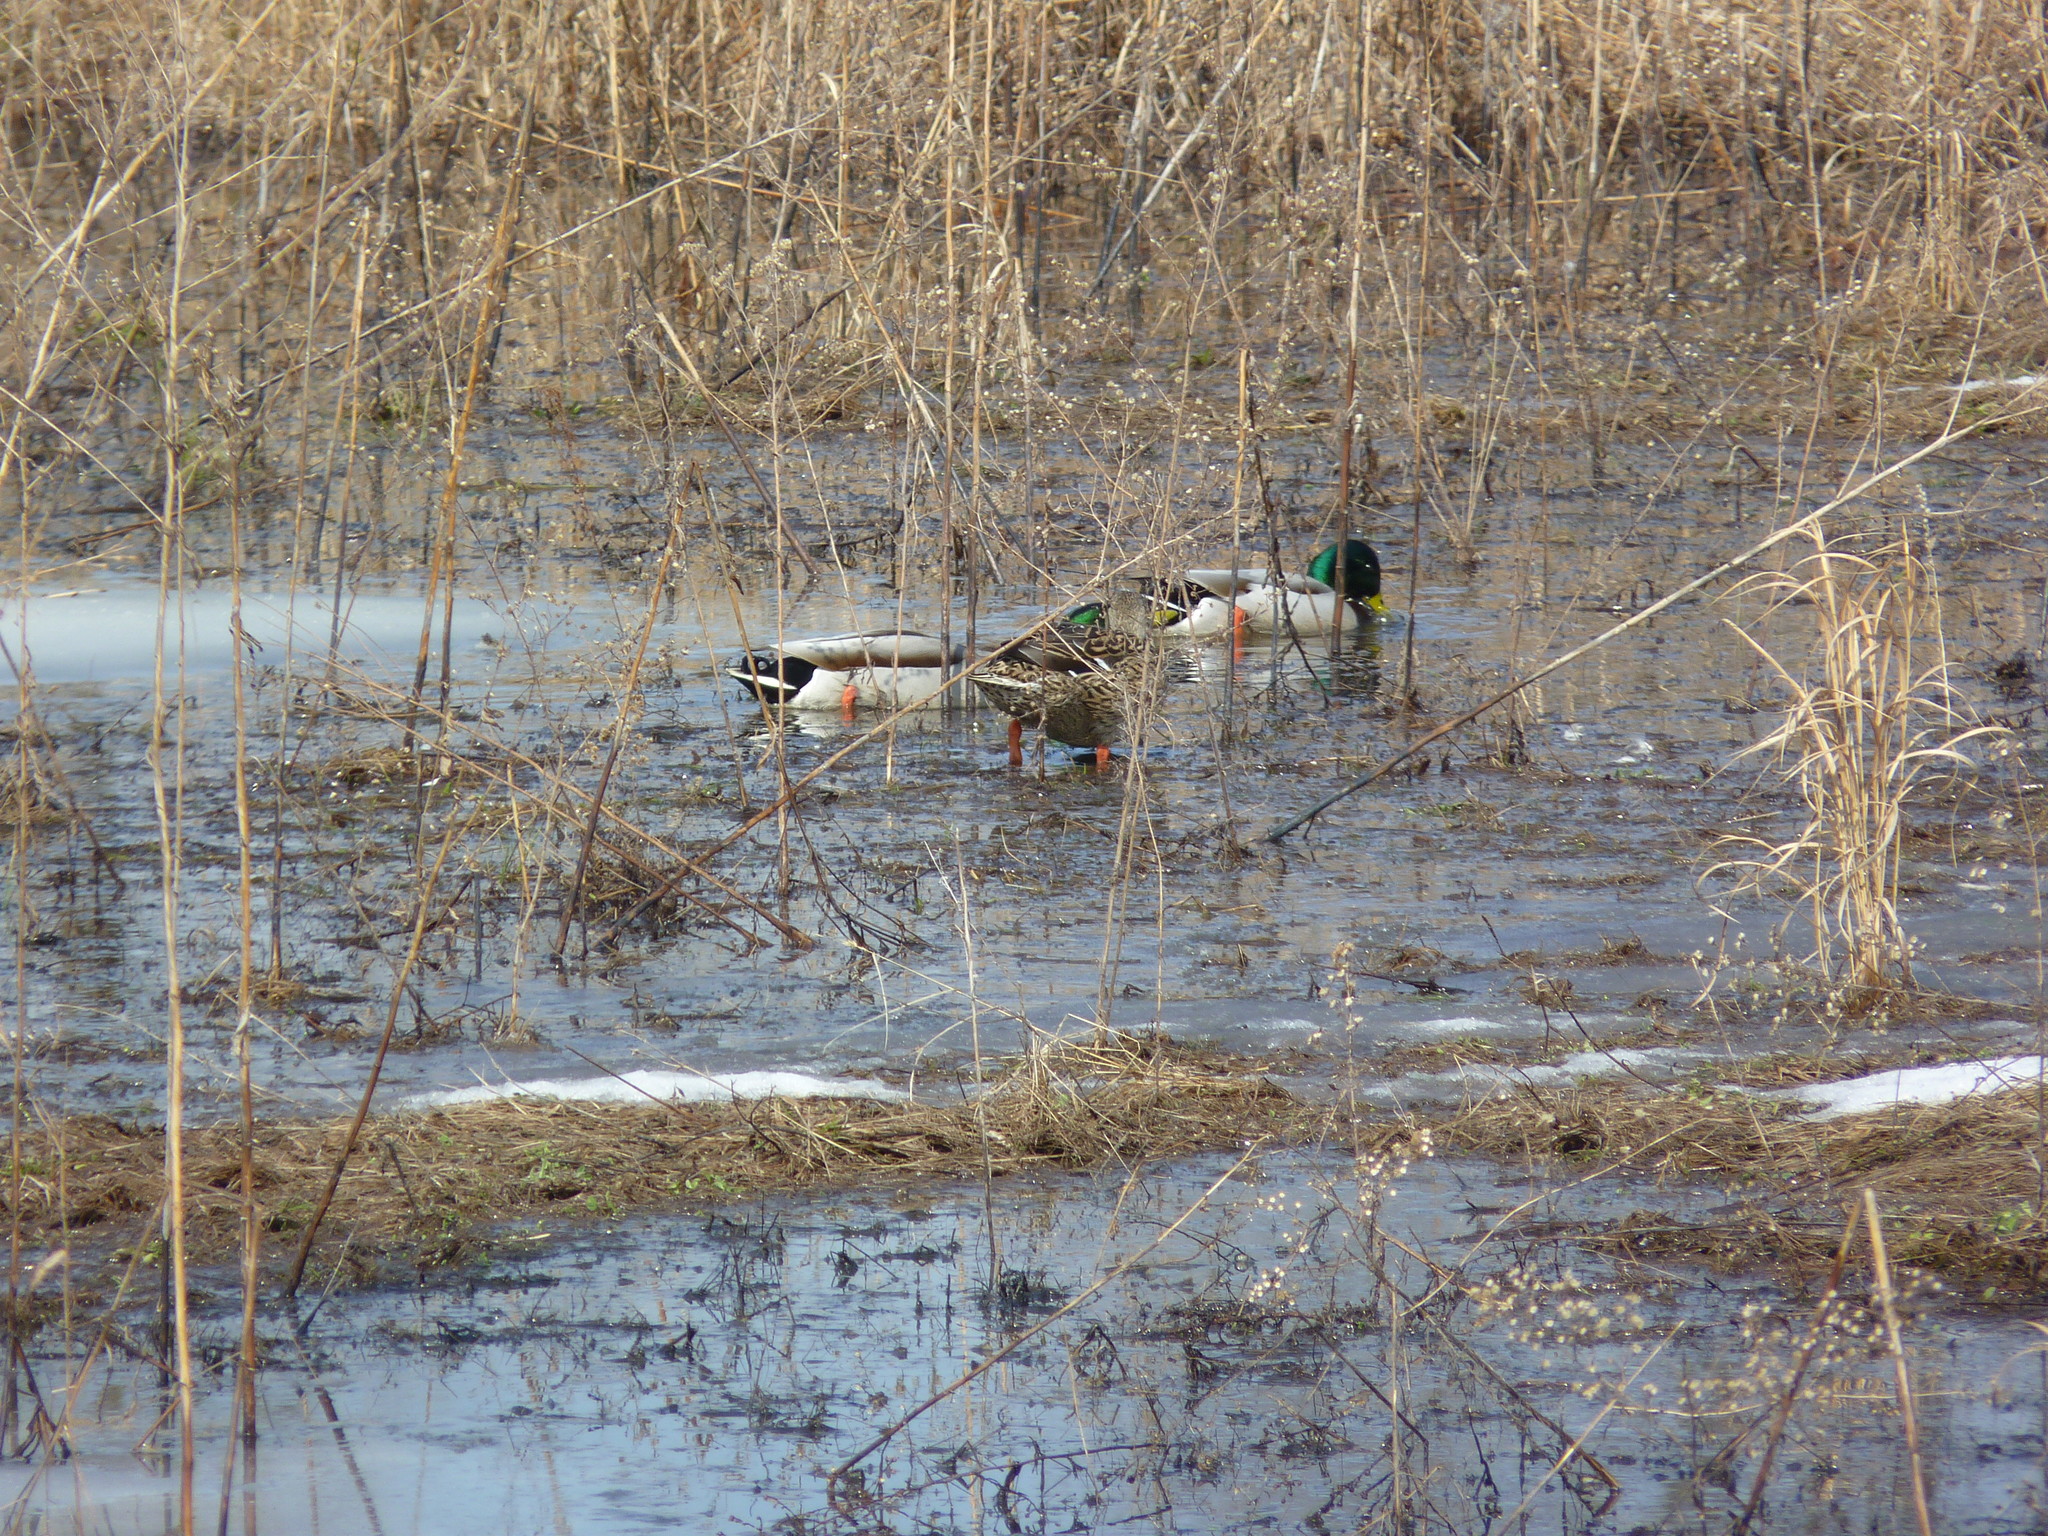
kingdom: Animalia
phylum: Chordata
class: Aves
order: Anseriformes
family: Anatidae
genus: Anas
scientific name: Anas platyrhynchos
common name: Mallard
